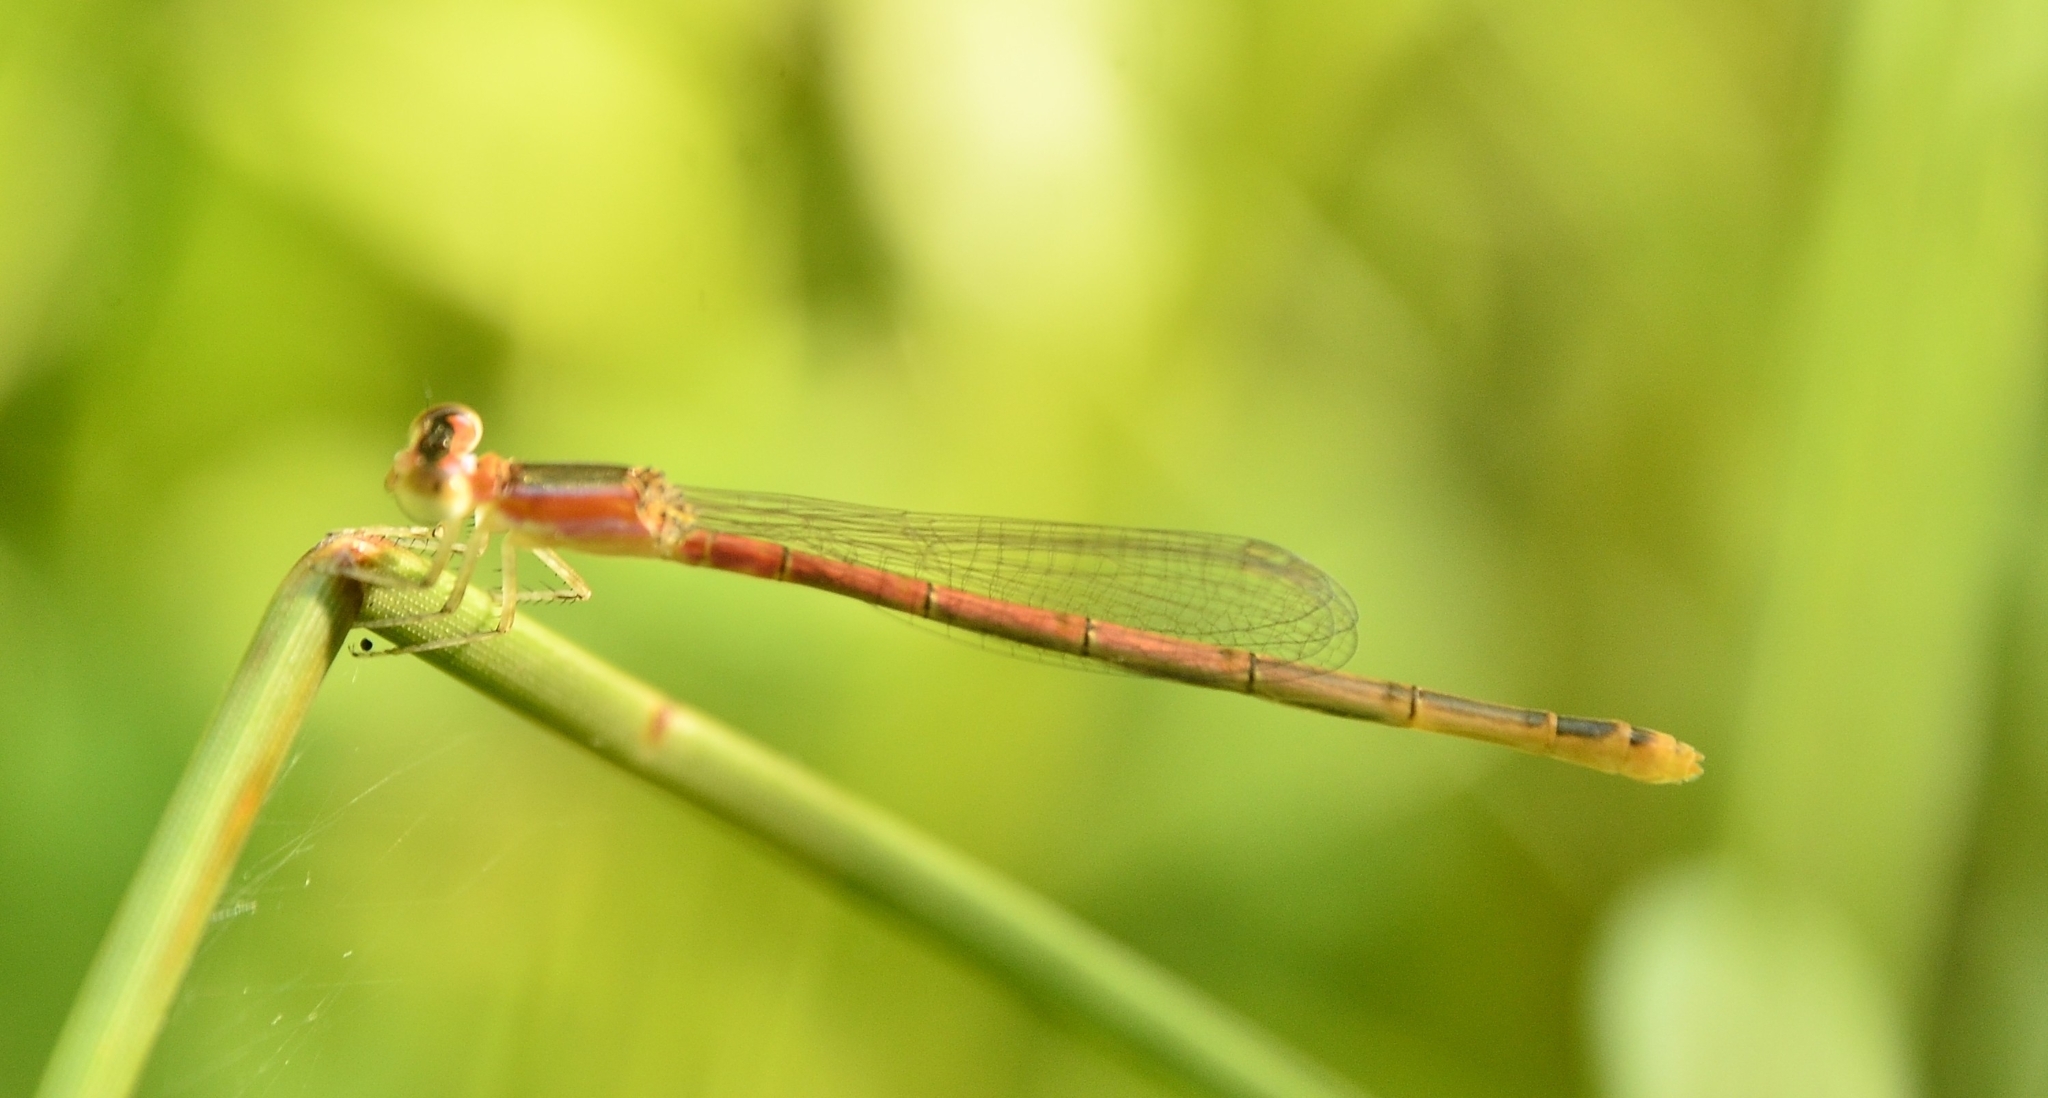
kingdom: Animalia
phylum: Arthropoda
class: Insecta
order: Odonata
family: Coenagrionidae
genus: Agriocnemis
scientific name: Agriocnemis pygmaea
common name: Pygmy wisp
